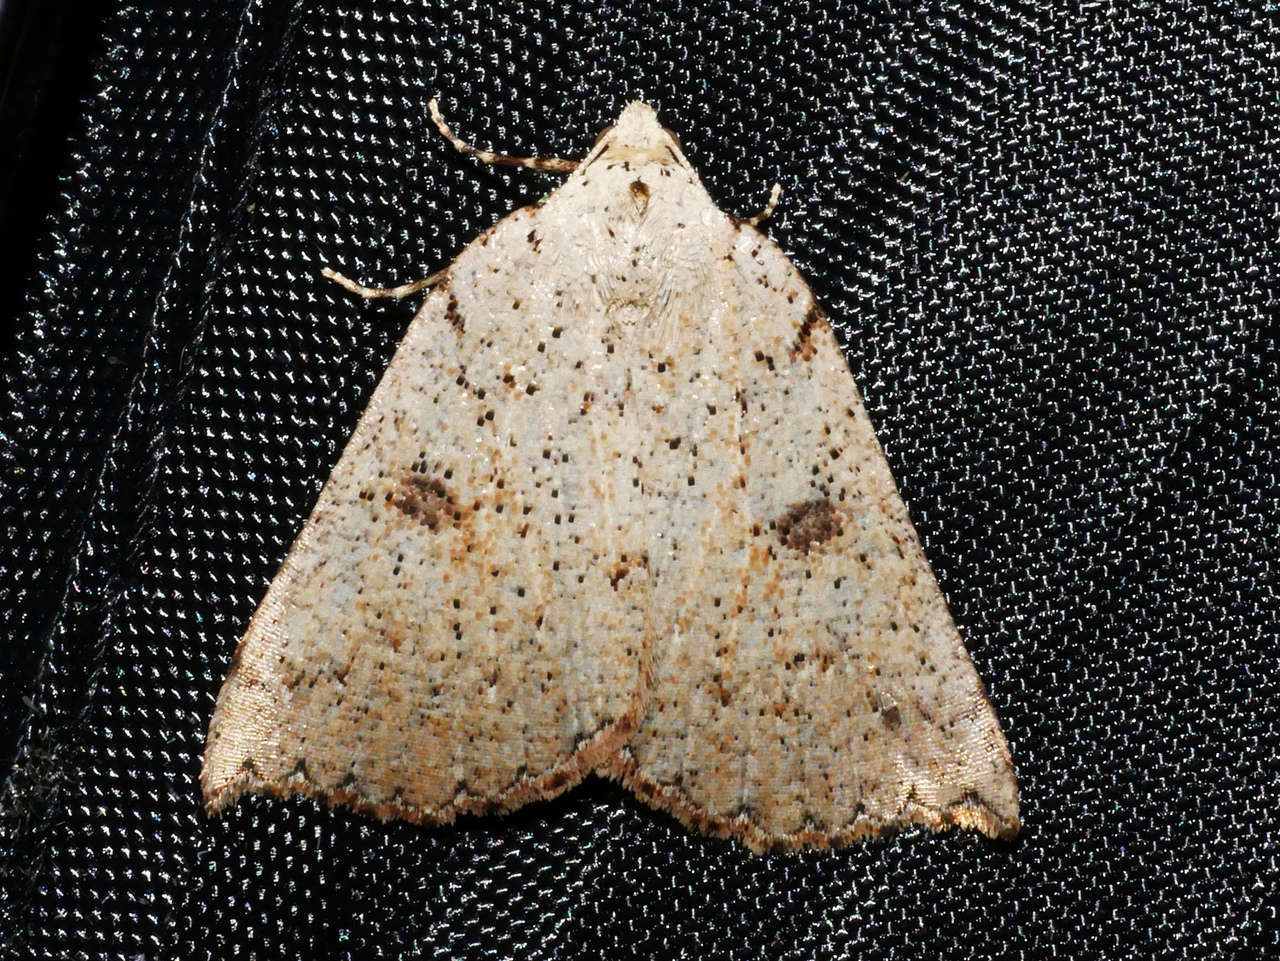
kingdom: Animalia
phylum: Arthropoda
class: Insecta
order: Lepidoptera
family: Geometridae
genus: Amelora
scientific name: Amelora demistis
